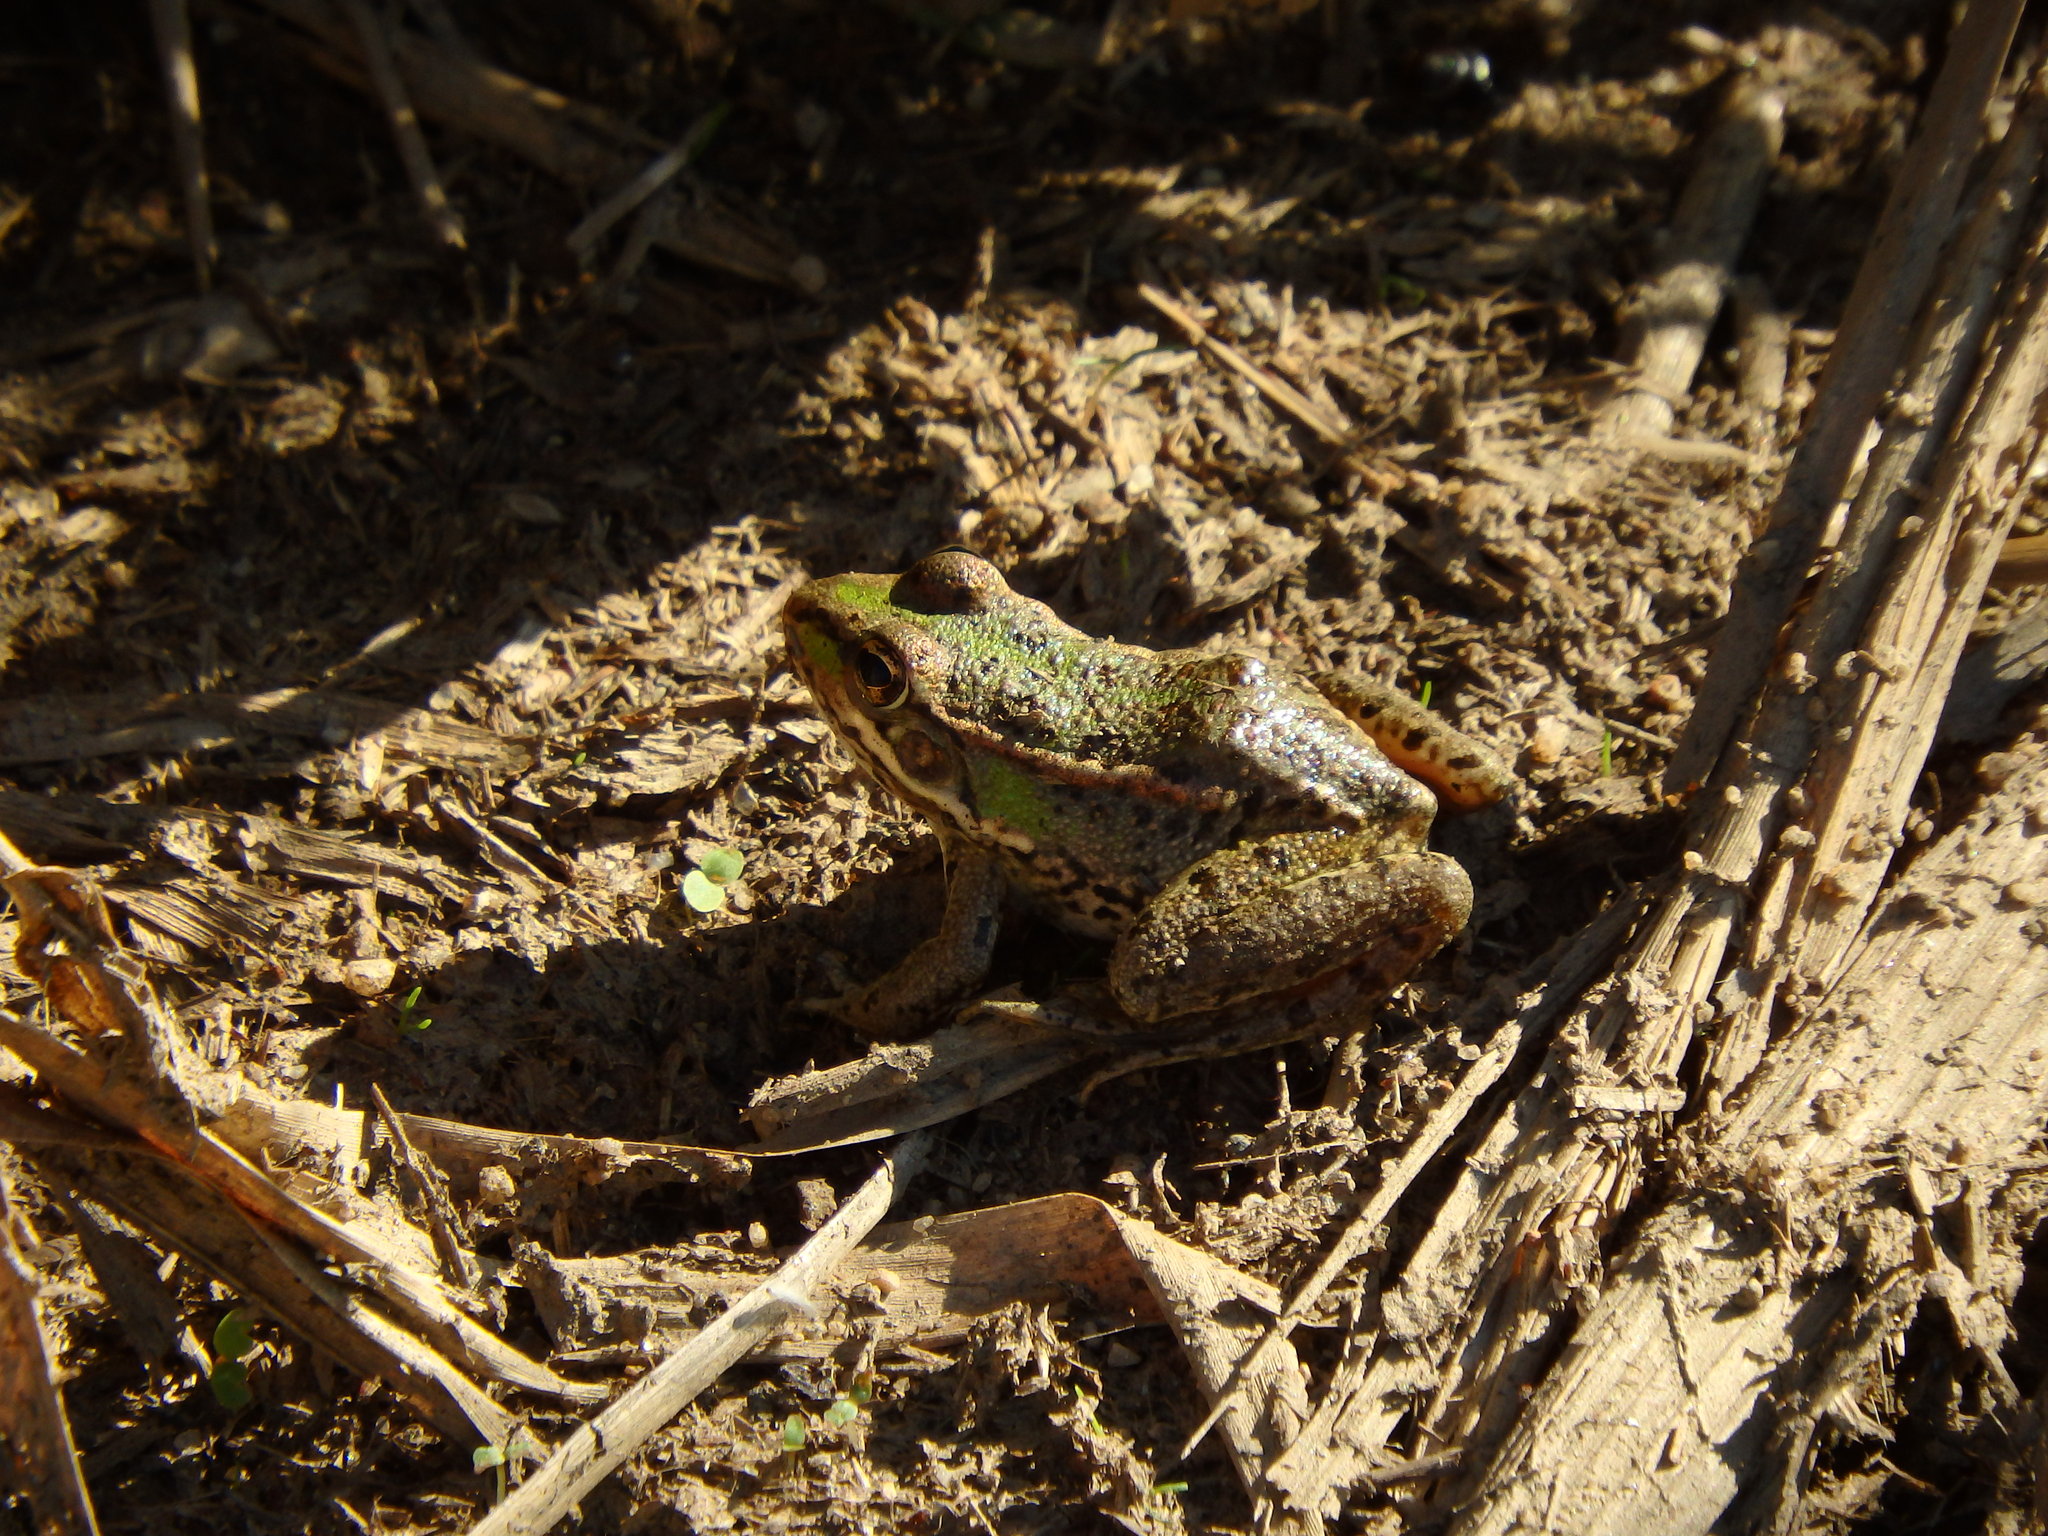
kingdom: Animalia
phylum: Chordata
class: Amphibia
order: Anura
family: Ranidae
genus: Pelophylax
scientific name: Pelophylax perezi
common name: Perez's frog
